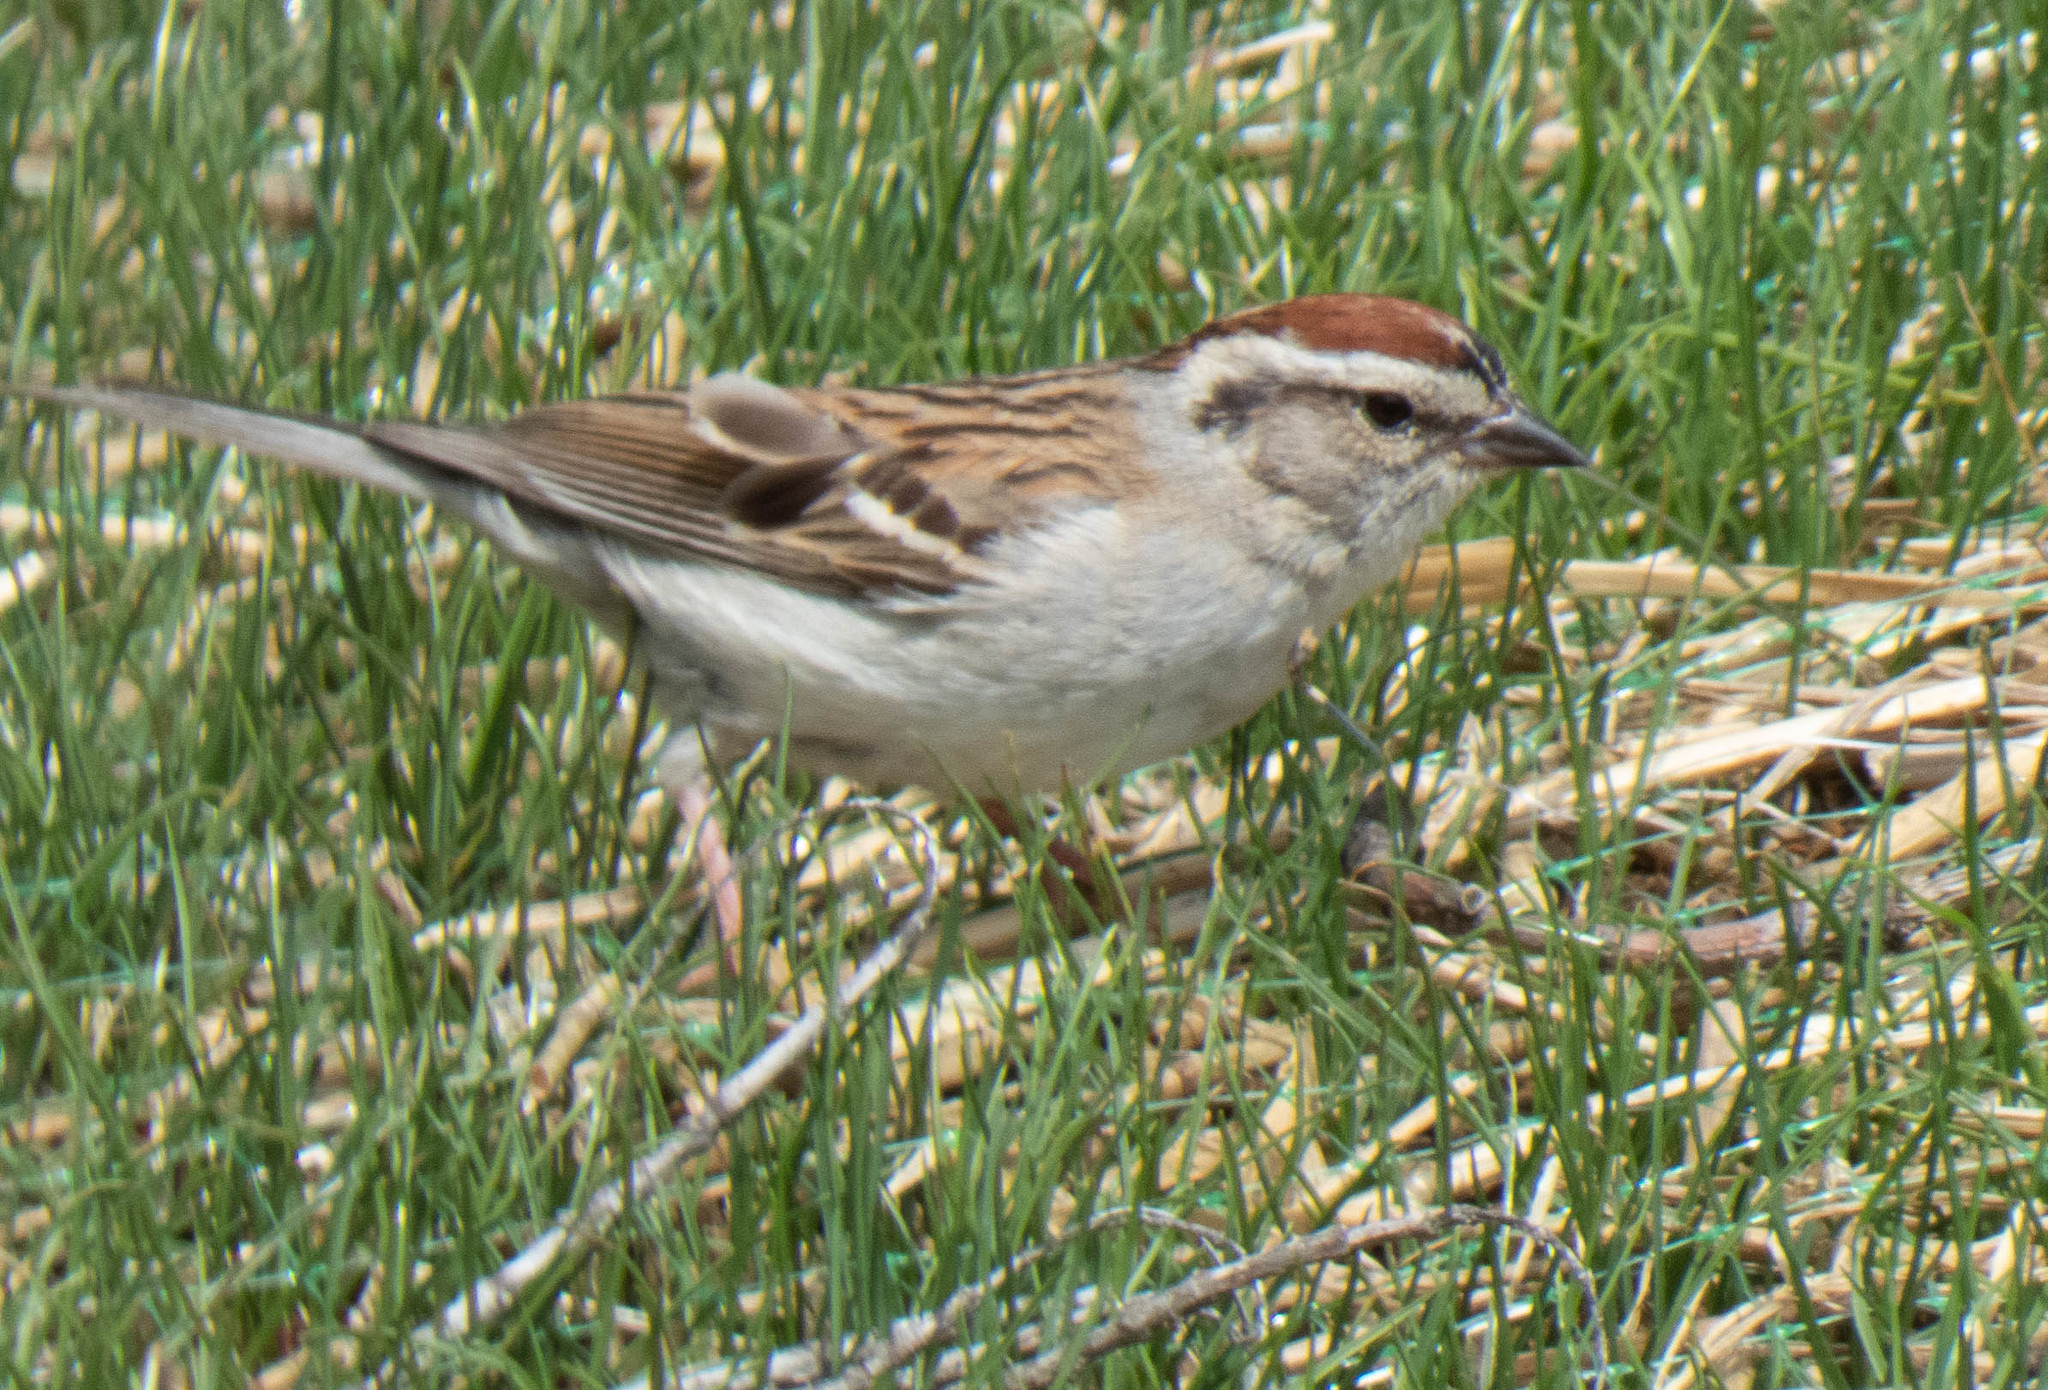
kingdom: Animalia
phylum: Chordata
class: Aves
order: Passeriformes
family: Passerellidae
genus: Spizella
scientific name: Spizella passerina
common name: Chipping sparrow
